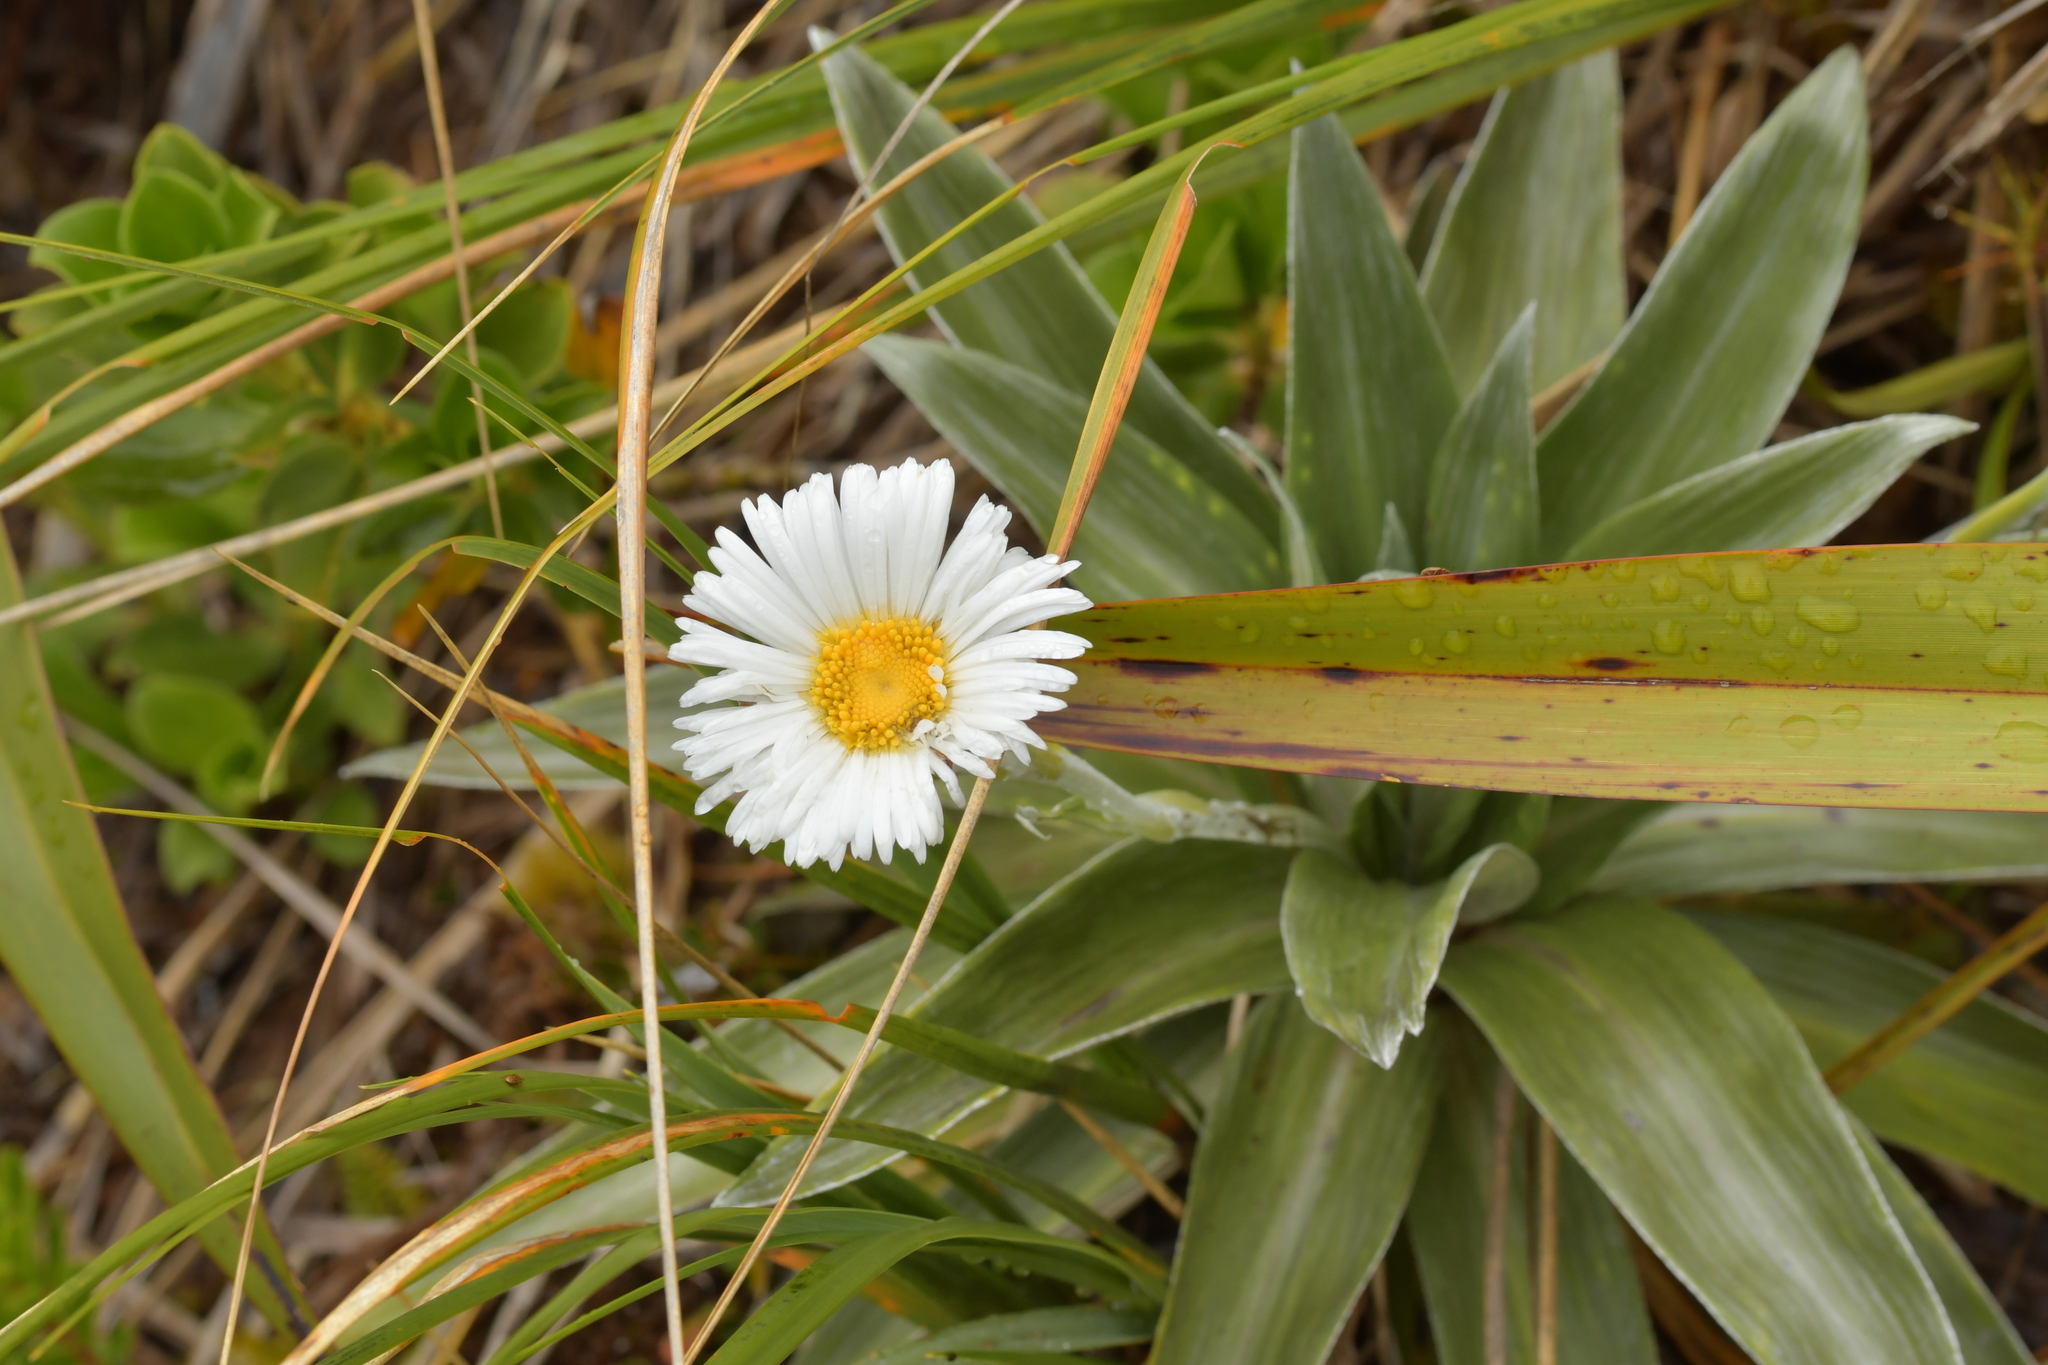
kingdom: Plantae
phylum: Tracheophyta
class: Magnoliopsida
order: Asterales
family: Asteraceae
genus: Celmisia
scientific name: Celmisia semicordata
